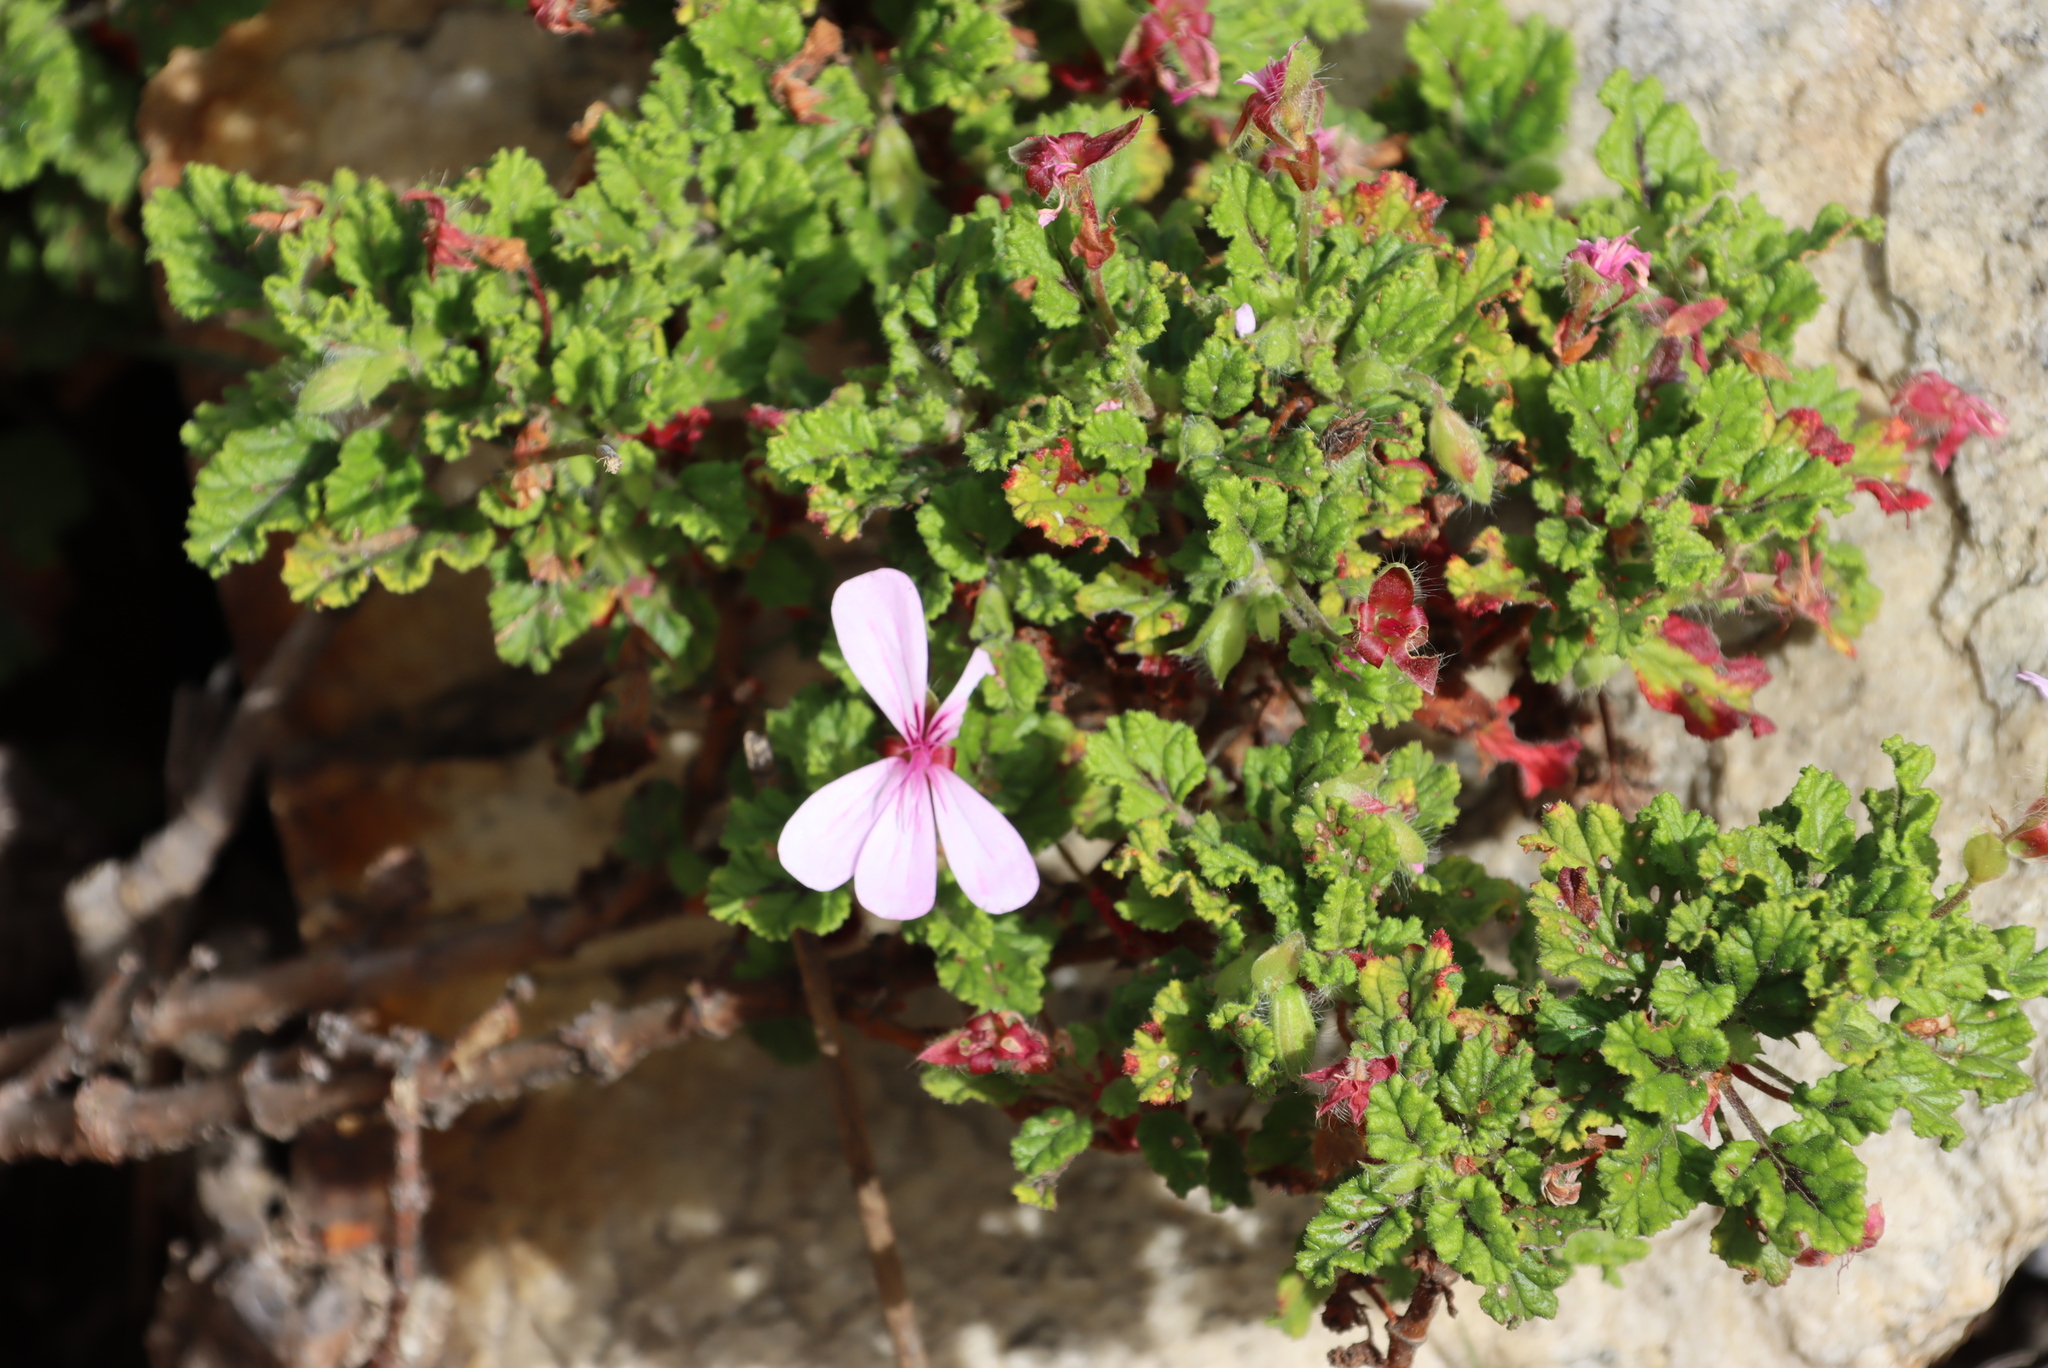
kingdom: Plantae
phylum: Tracheophyta
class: Magnoliopsida
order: Geraniales
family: Geraniaceae
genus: Pelargonium
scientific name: Pelargonium panduriforme
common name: Oakleaf garden geranium
